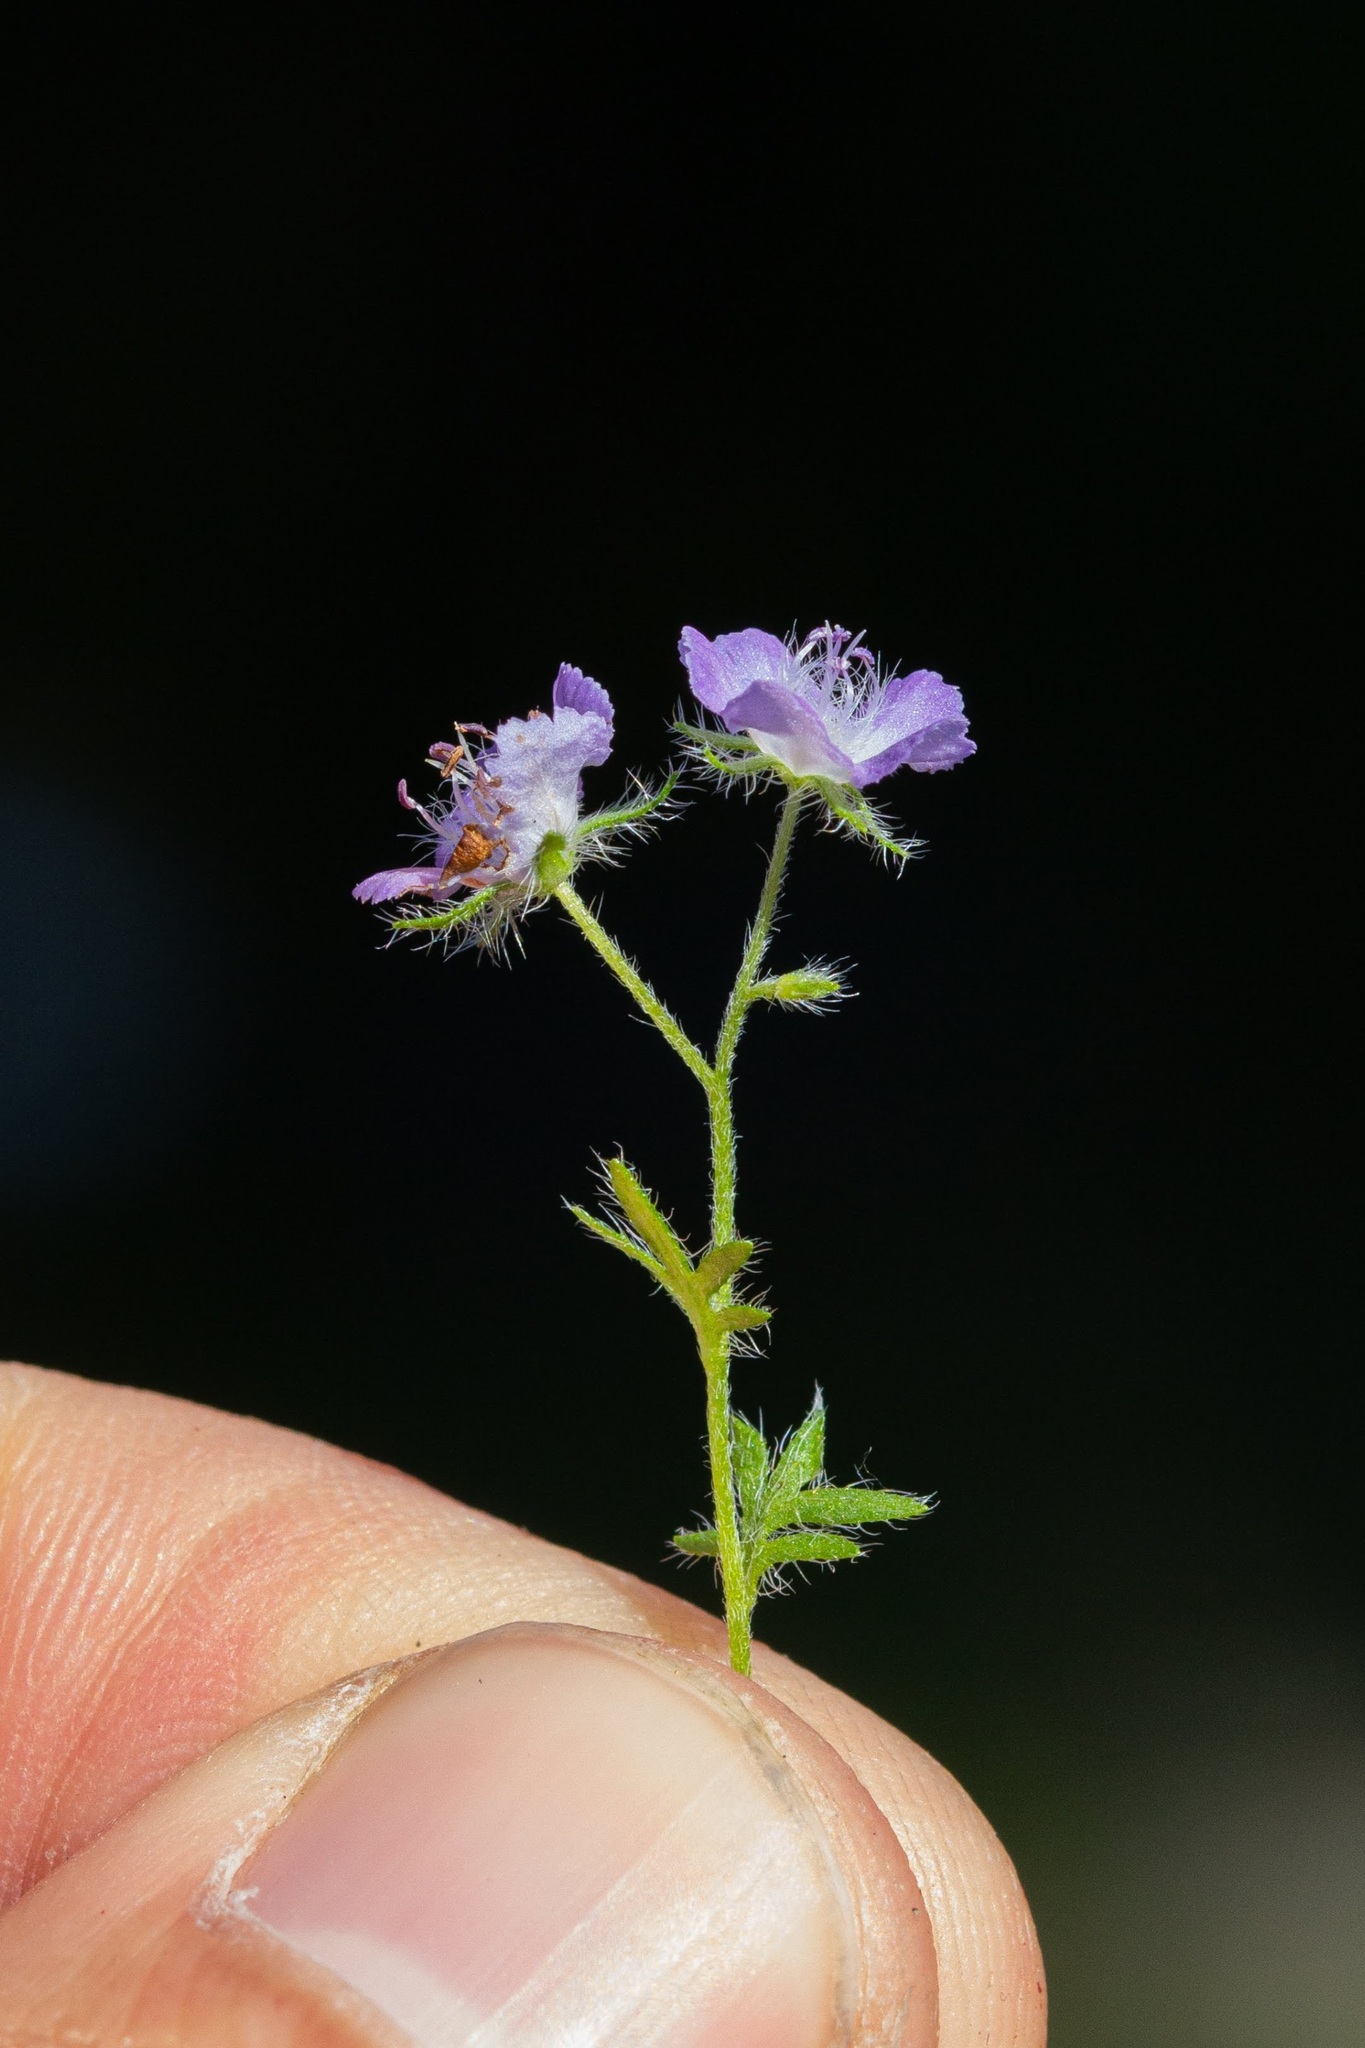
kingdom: Plantae
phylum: Tracheophyta
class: Magnoliopsida
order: Boraginales
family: Hydrophyllaceae
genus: Phacelia
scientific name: Phacelia hirsuta
